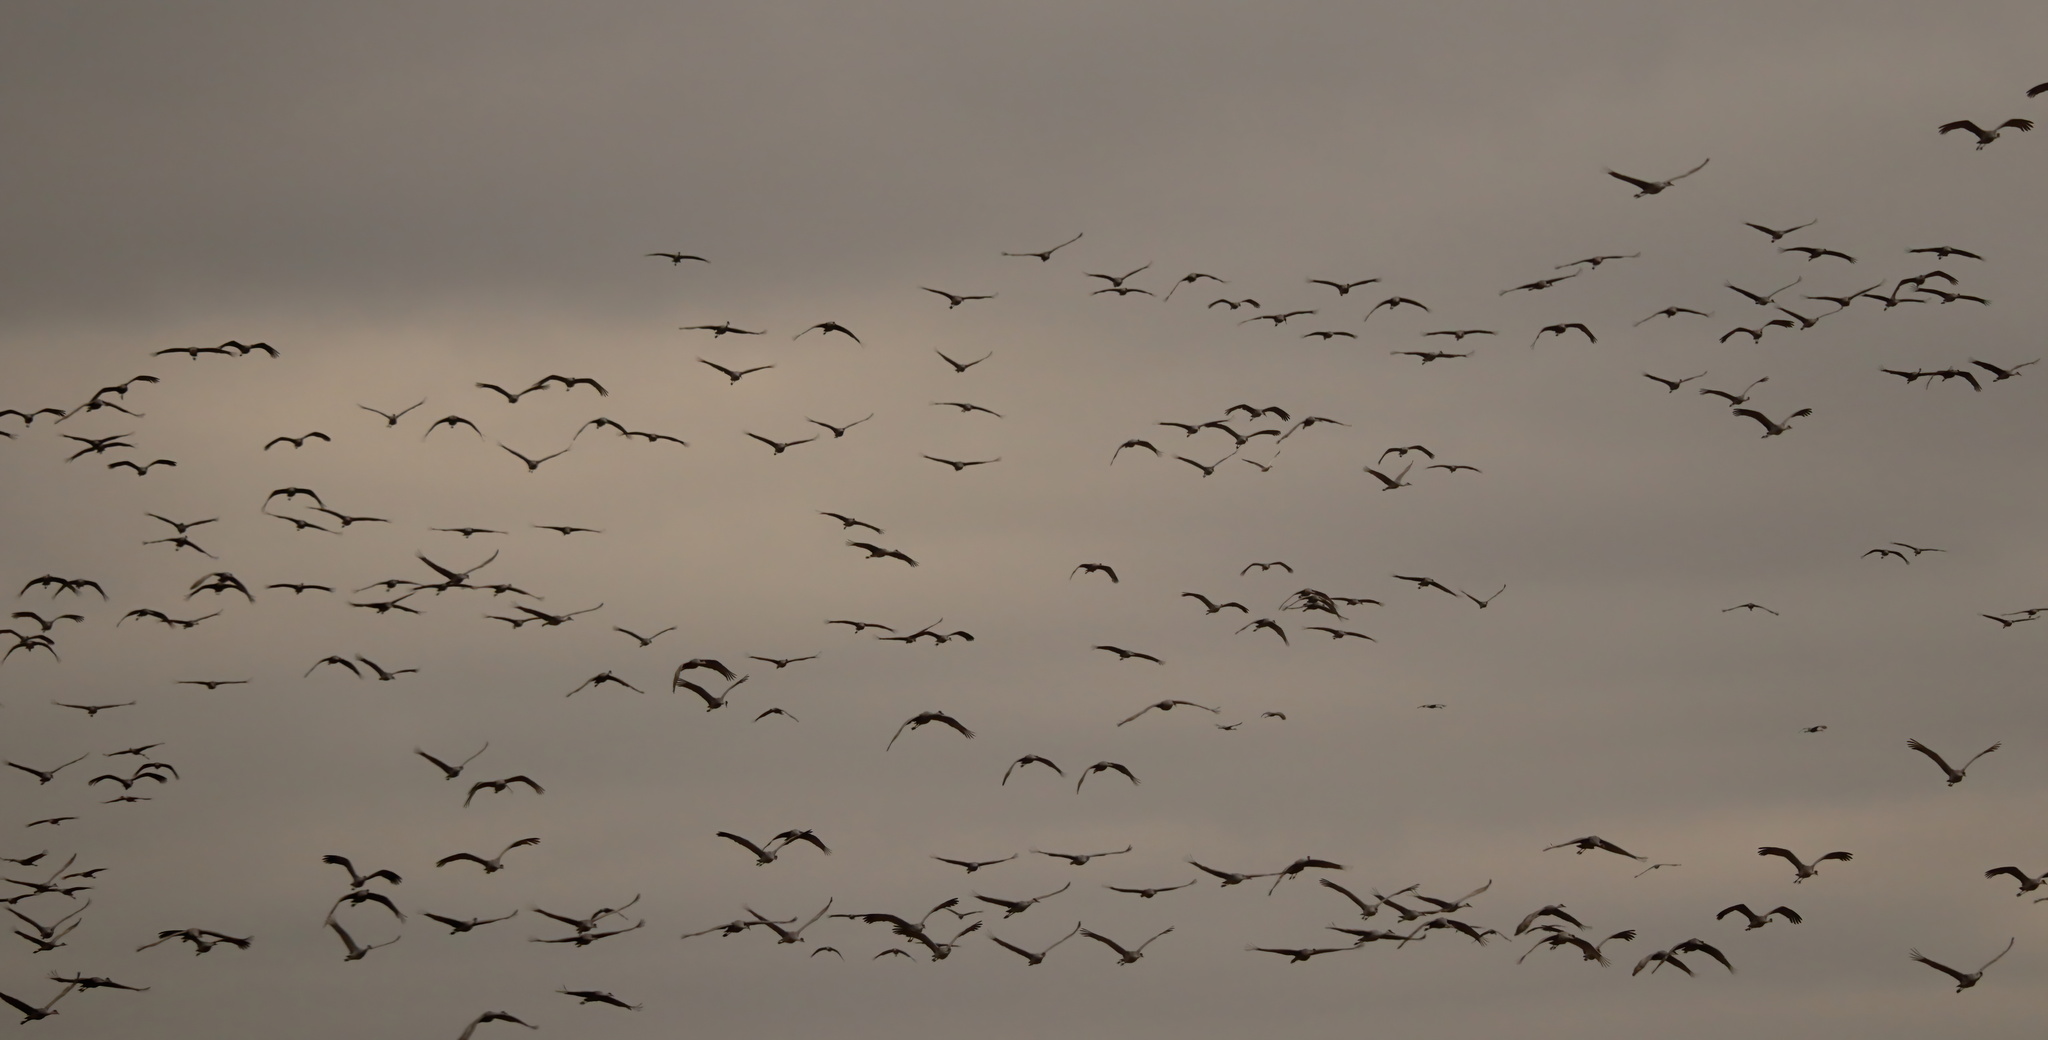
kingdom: Animalia
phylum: Chordata
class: Aves
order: Gruiformes
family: Gruidae
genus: Grus
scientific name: Grus canadensis
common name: Sandhill crane
